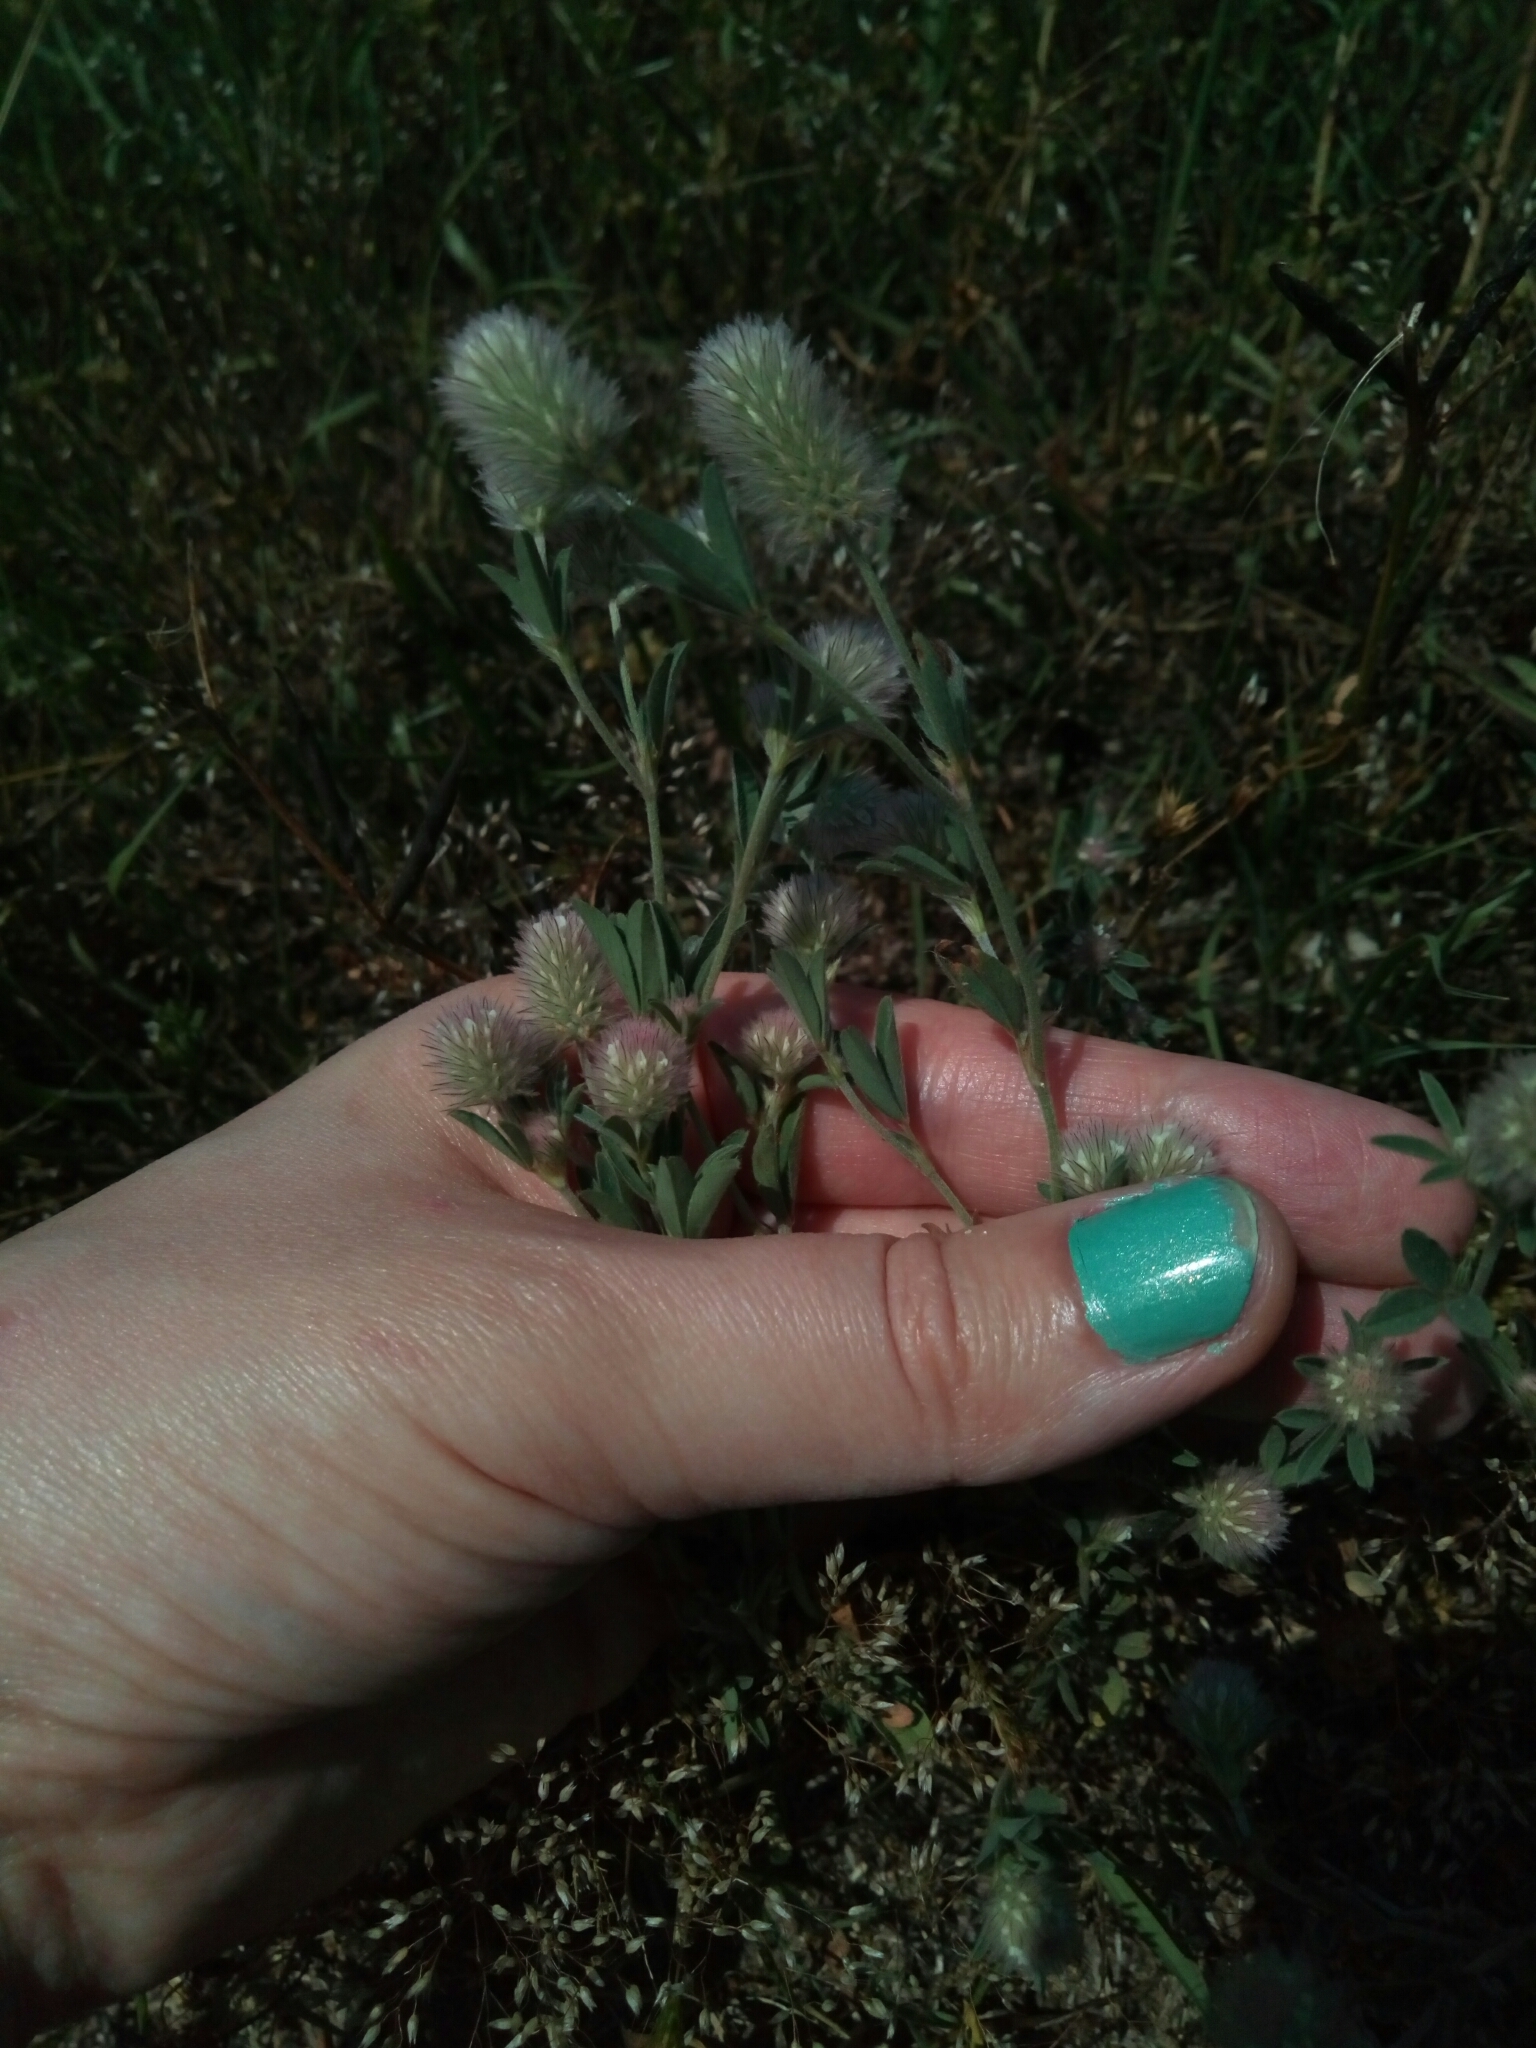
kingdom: Plantae
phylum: Tracheophyta
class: Magnoliopsida
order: Fabales
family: Fabaceae
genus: Trifolium
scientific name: Trifolium arvense
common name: Hare's-foot clover
